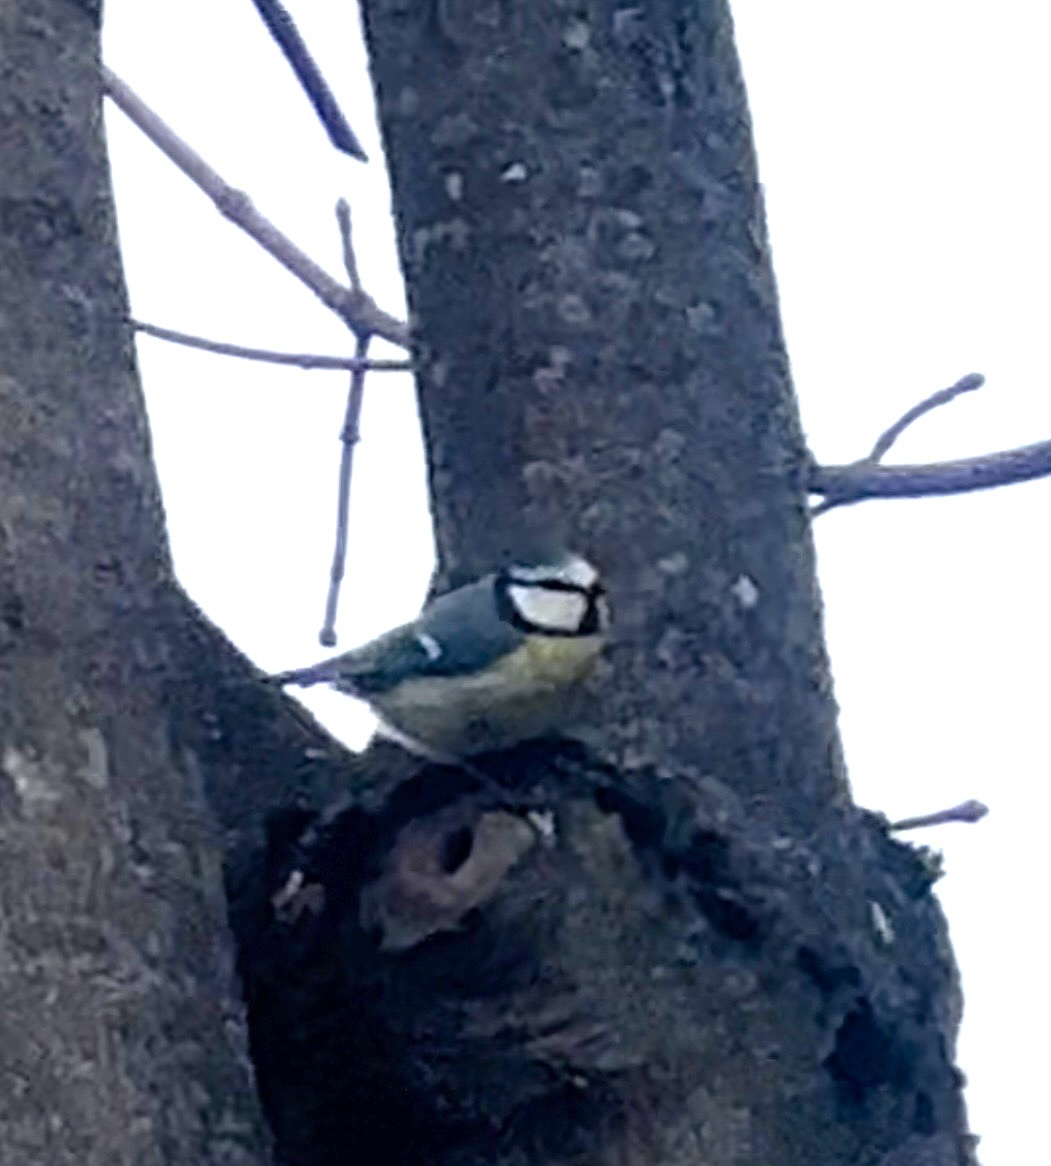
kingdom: Animalia
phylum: Chordata
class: Aves
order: Passeriformes
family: Paridae
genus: Cyanistes
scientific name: Cyanistes caeruleus
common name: Eurasian blue tit
